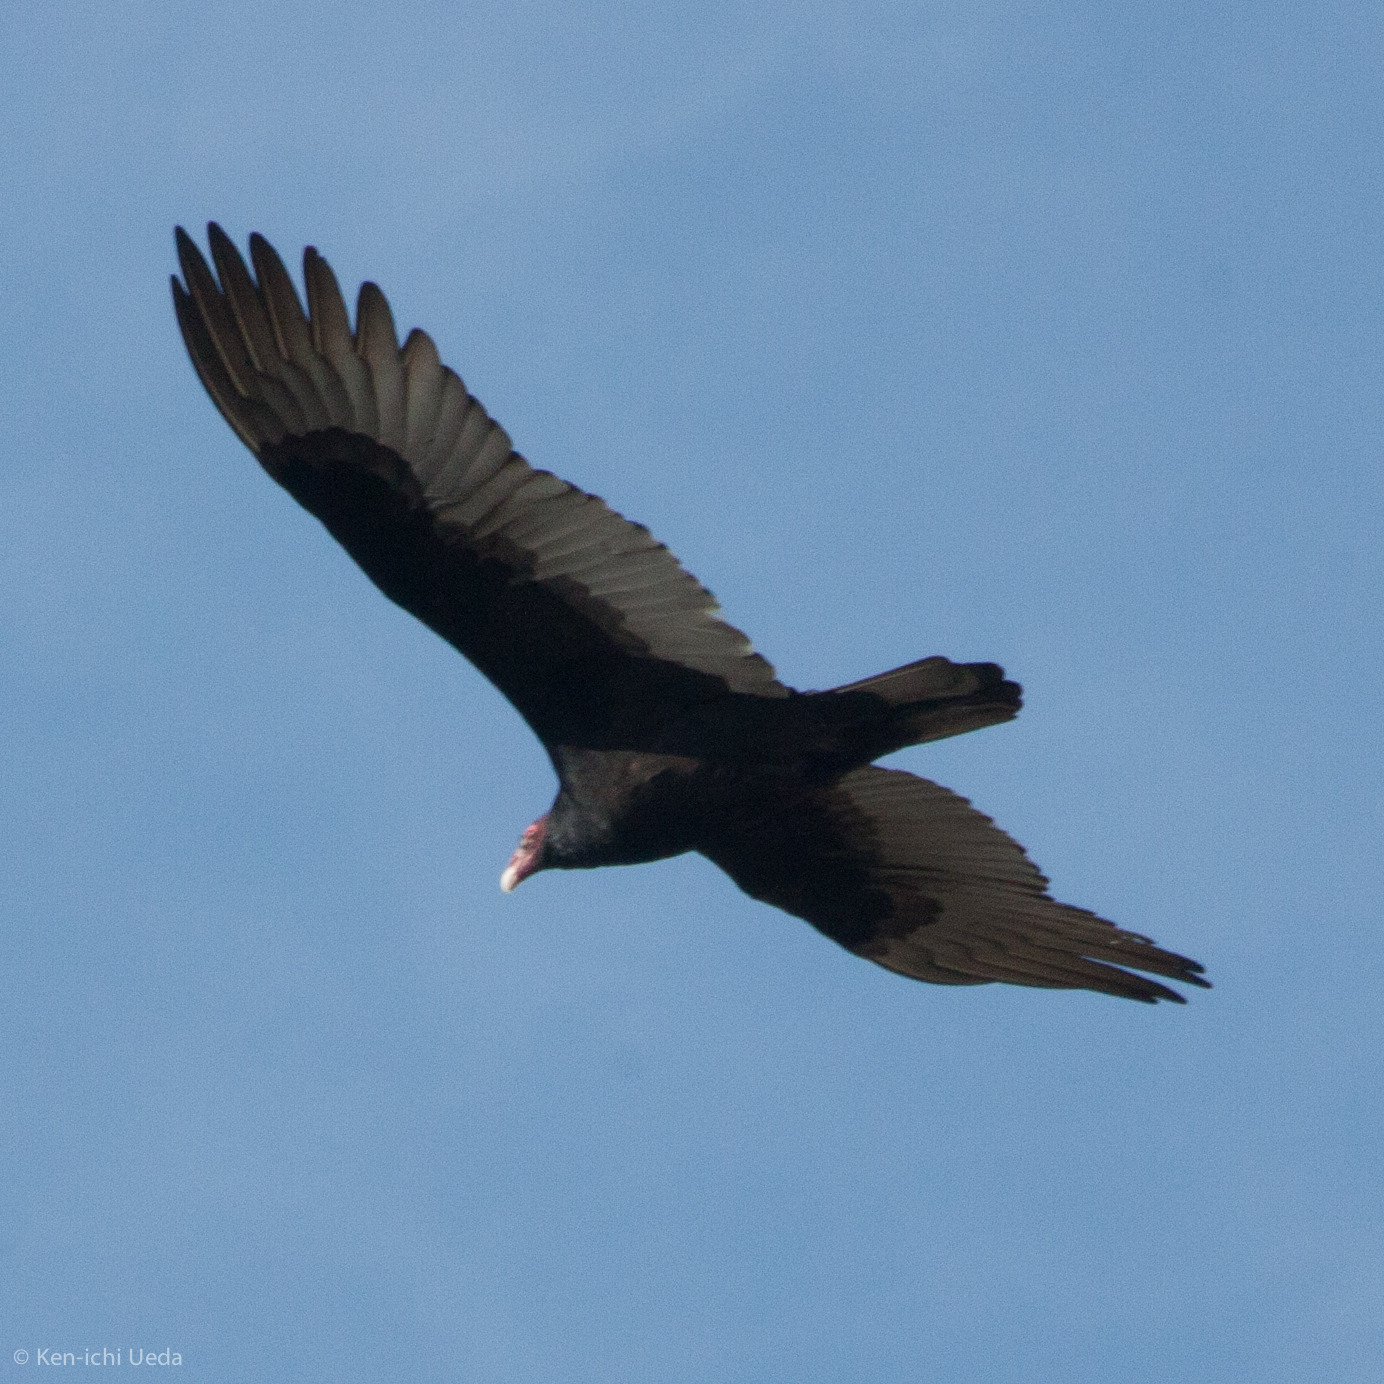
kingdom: Animalia
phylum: Chordata
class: Aves
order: Accipitriformes
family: Cathartidae
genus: Cathartes
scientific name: Cathartes aura
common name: Turkey vulture
